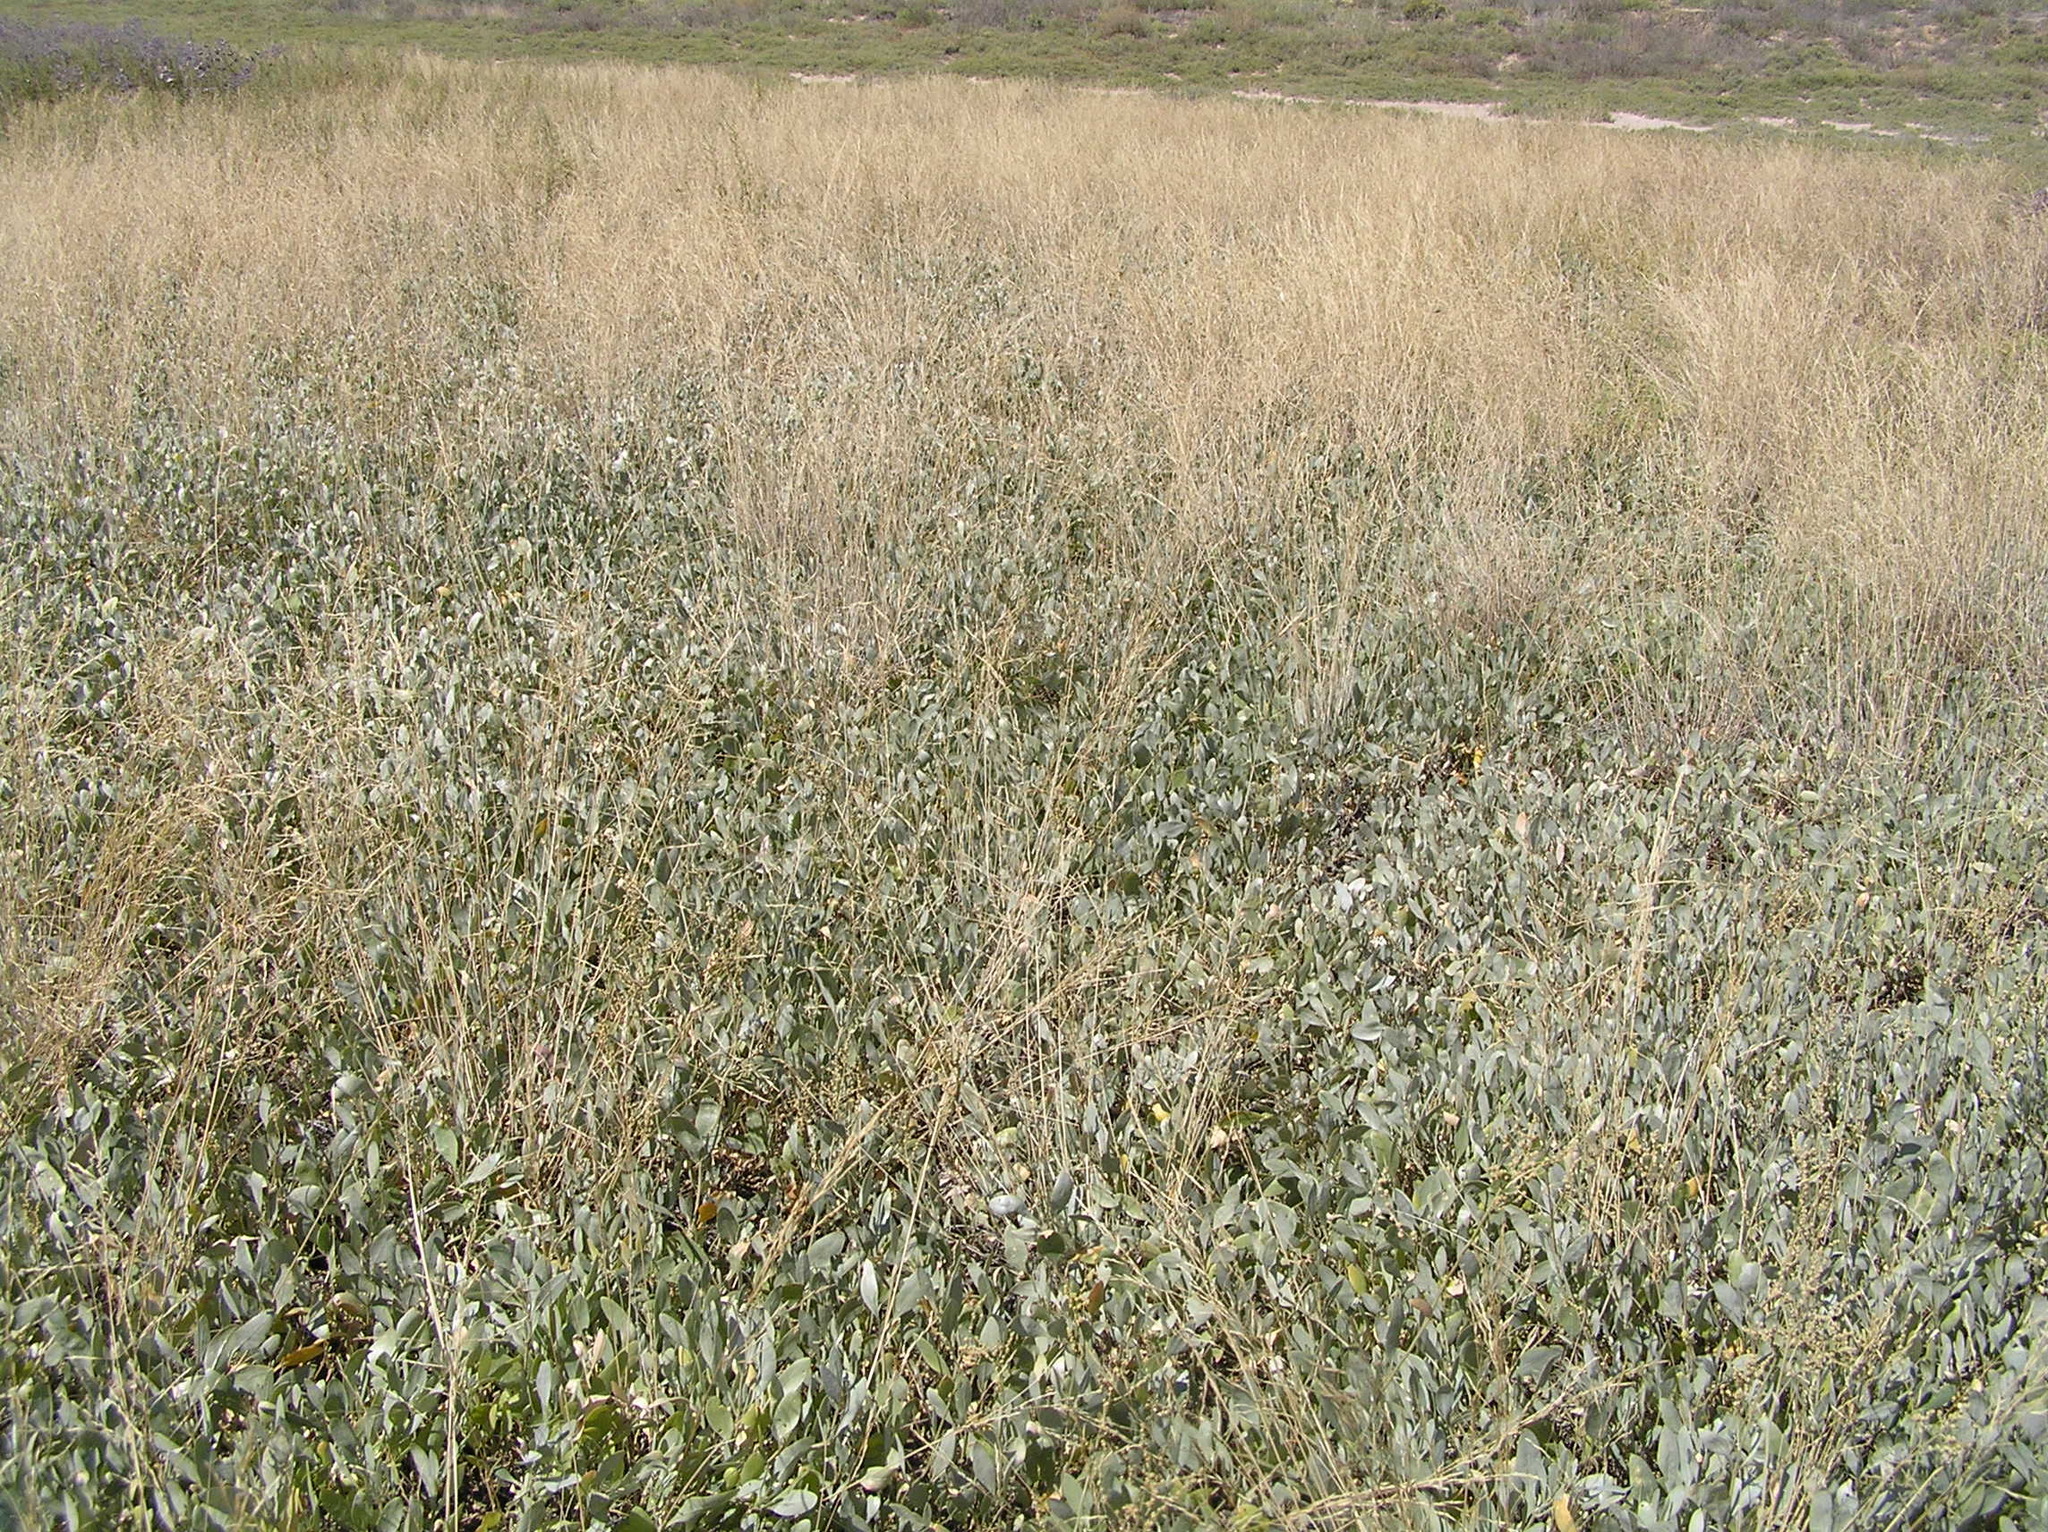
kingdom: Plantae
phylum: Tracheophyta
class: Magnoliopsida
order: Caryophyllales
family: Amaranthaceae
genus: Halimione
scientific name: Halimione verrucifera
